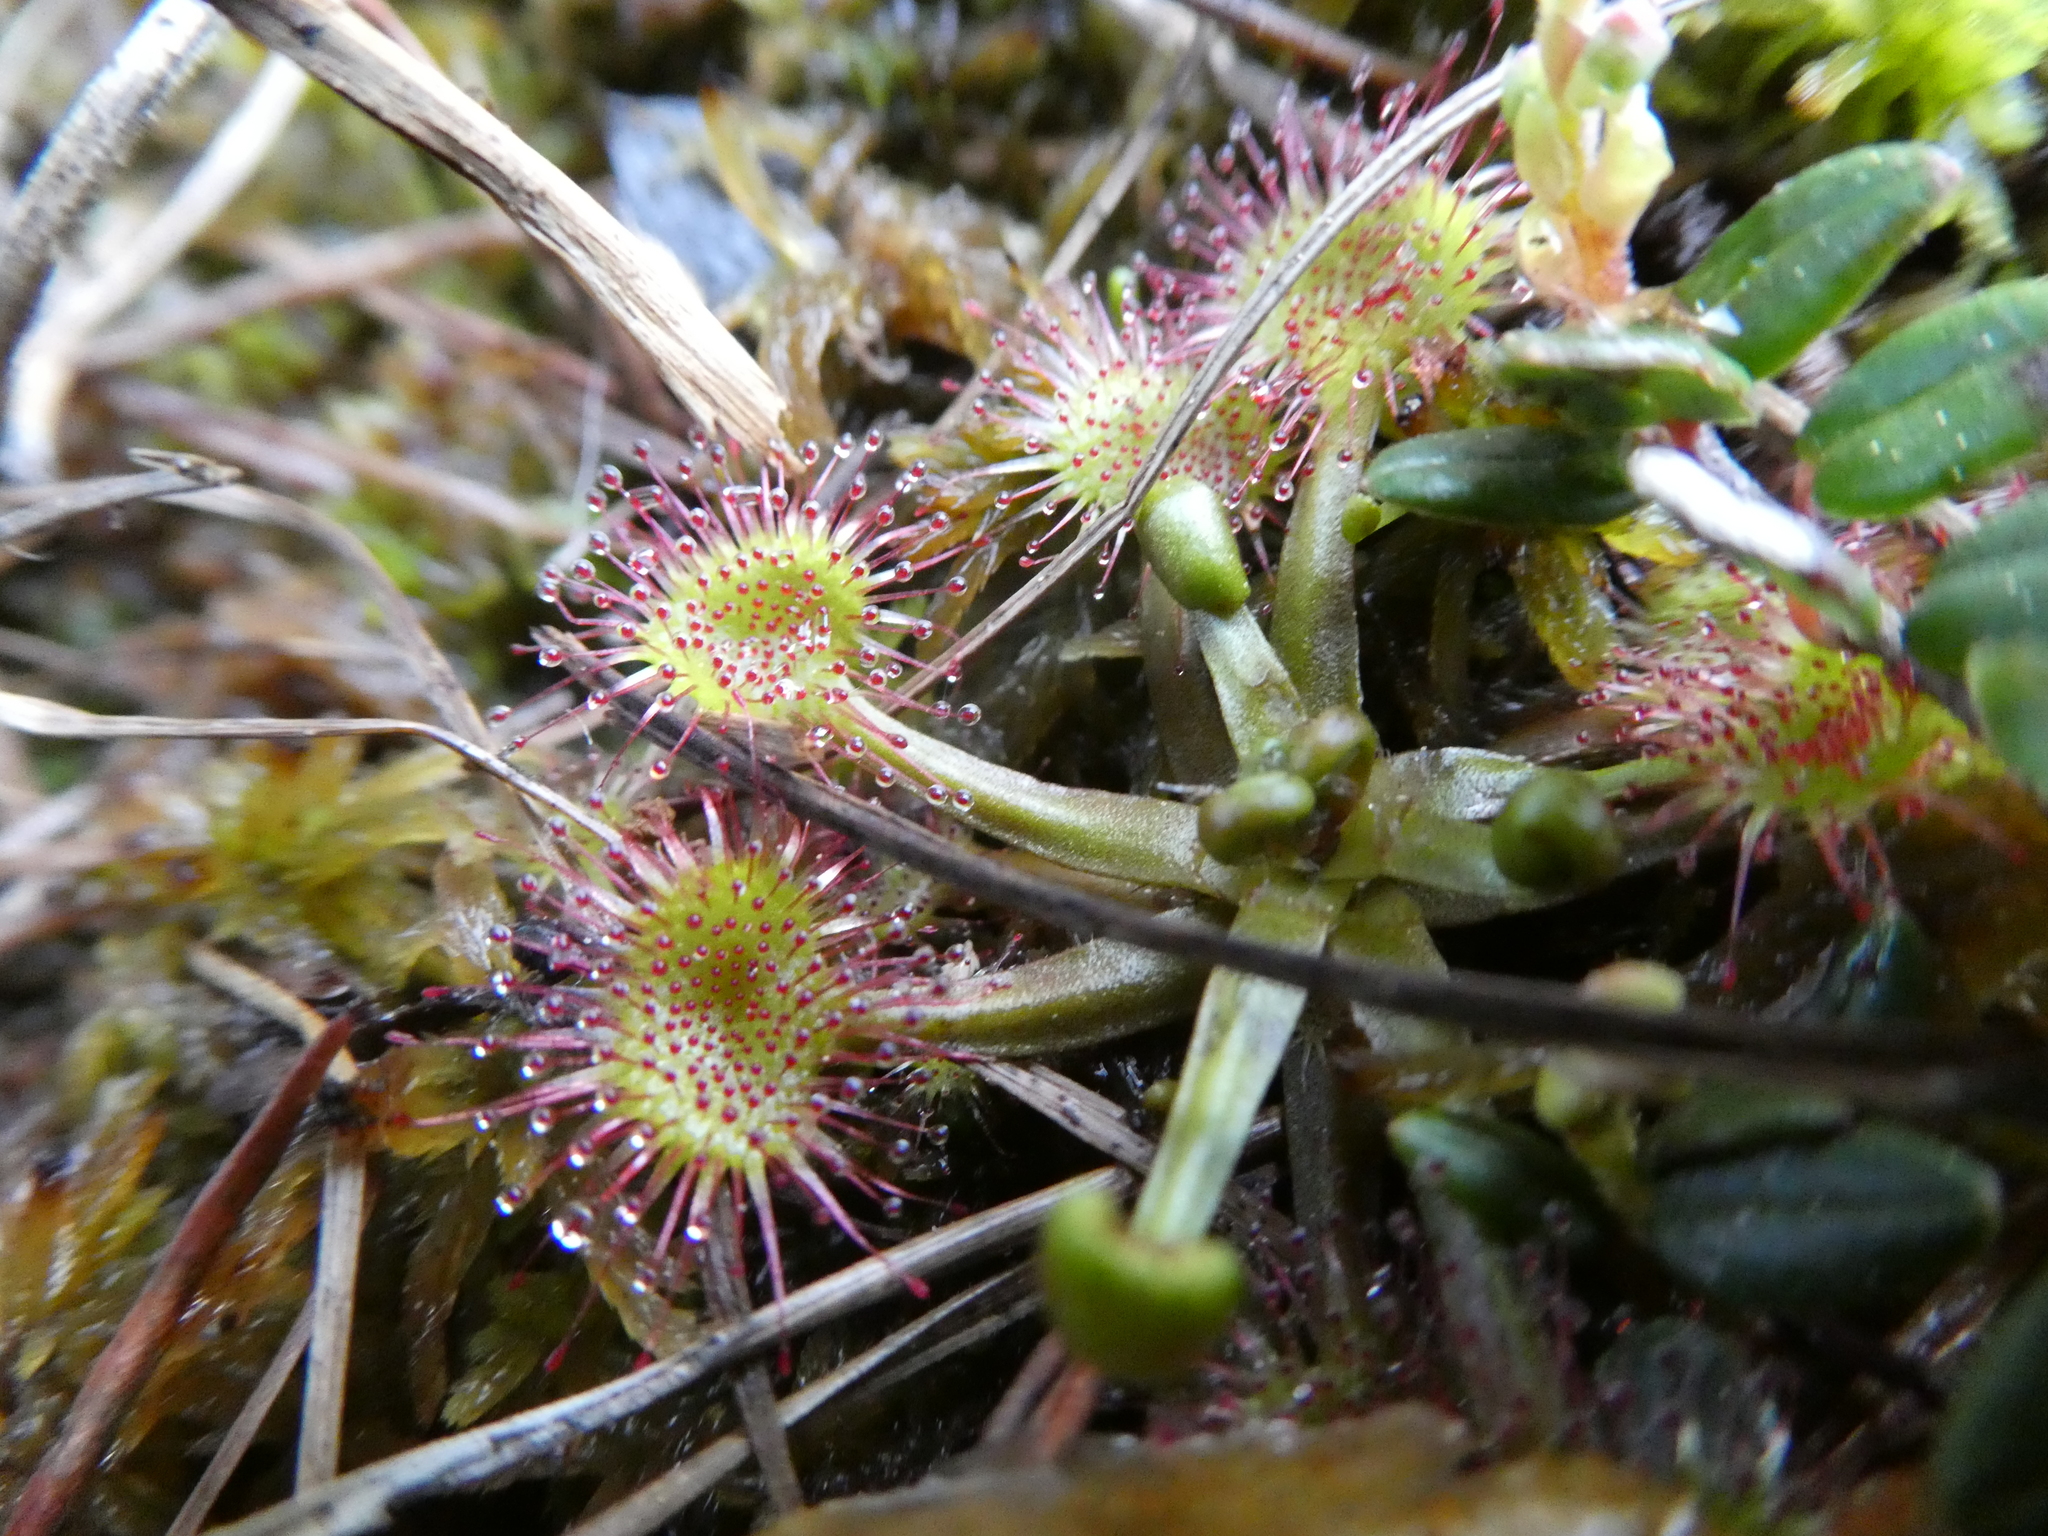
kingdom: Plantae
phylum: Tracheophyta
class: Magnoliopsida
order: Caryophyllales
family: Droseraceae
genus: Drosera
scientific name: Drosera rotundifolia
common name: Round-leaved sundew
